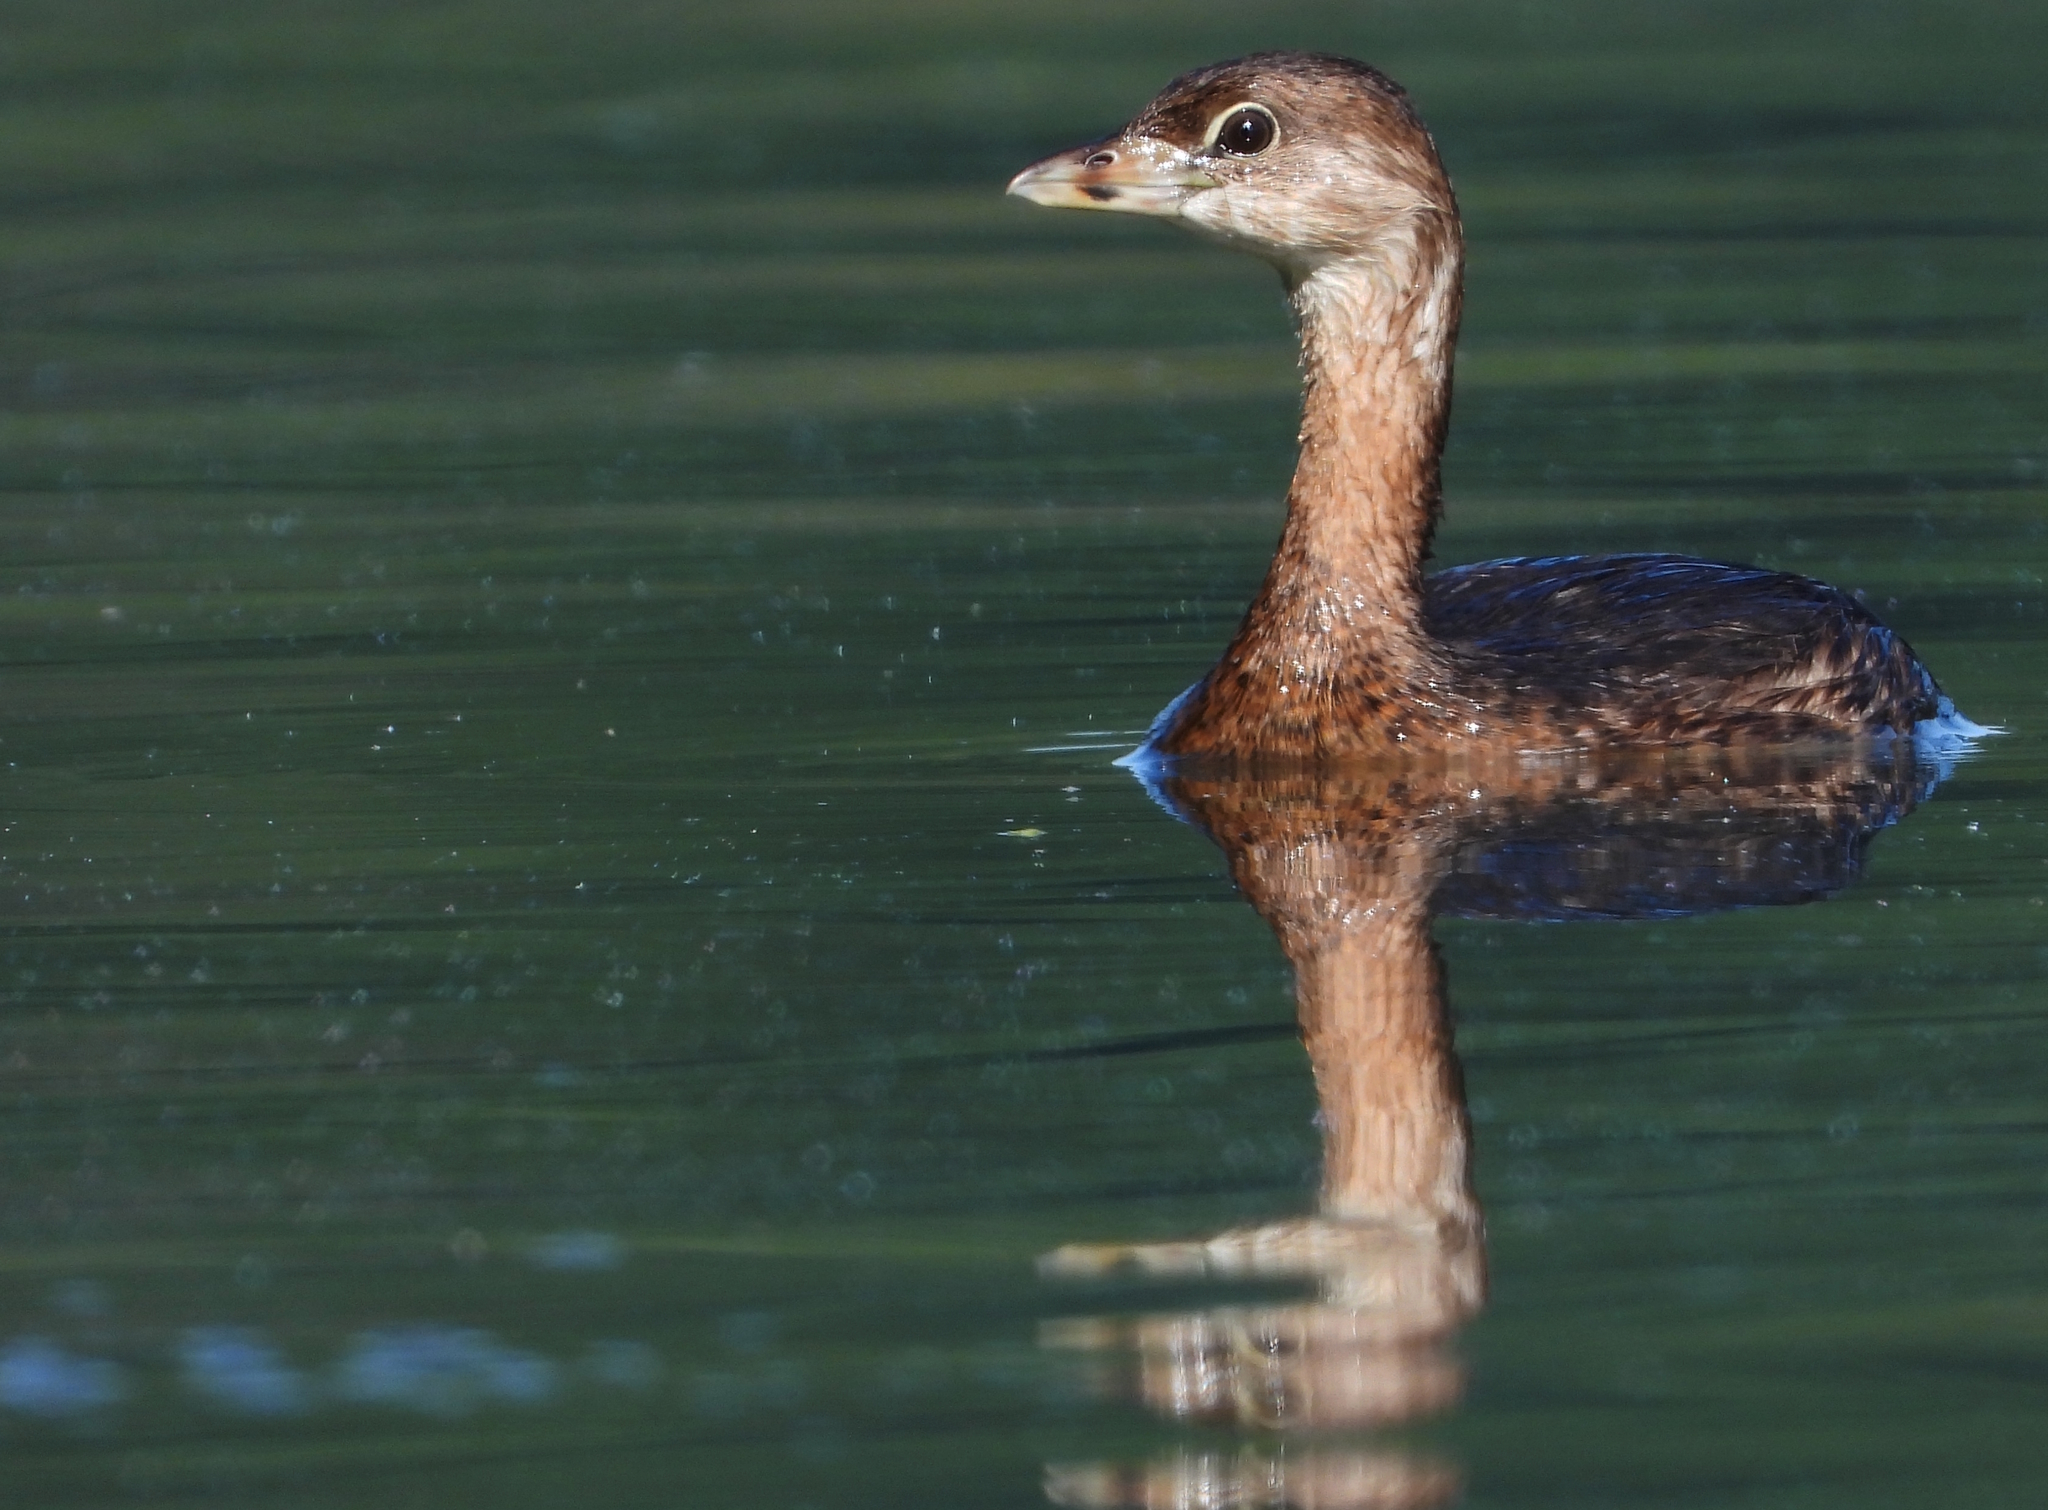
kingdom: Animalia
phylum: Chordata
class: Aves
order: Podicipediformes
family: Podicipedidae
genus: Podilymbus
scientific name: Podilymbus podiceps
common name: Pied-billed grebe
